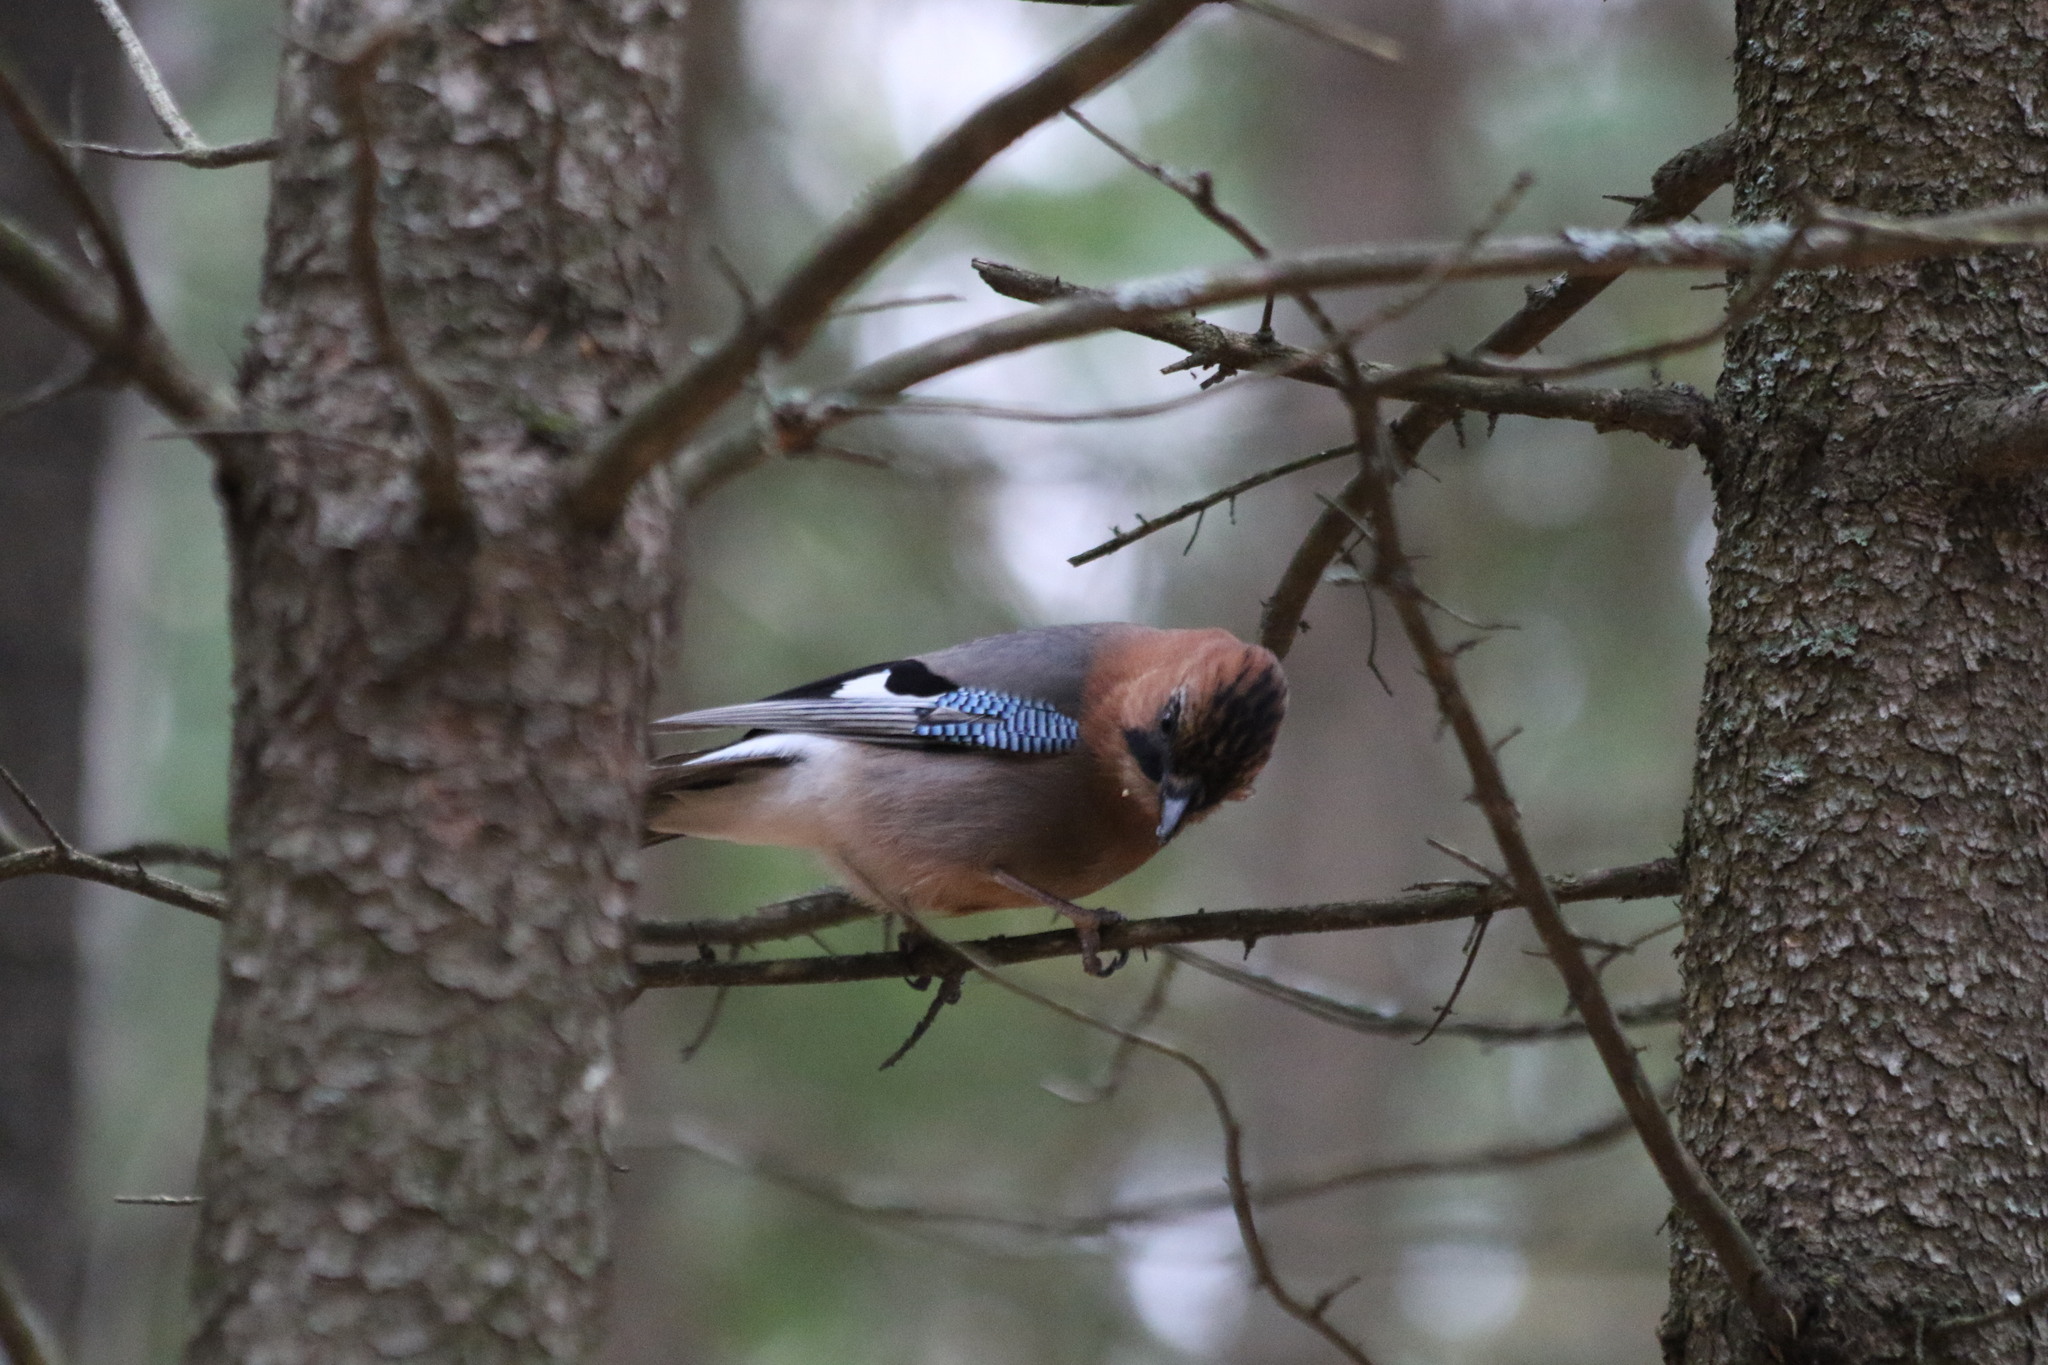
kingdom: Animalia
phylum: Chordata
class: Aves
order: Passeriformes
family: Corvidae
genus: Garrulus
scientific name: Garrulus glandarius
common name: Eurasian jay
